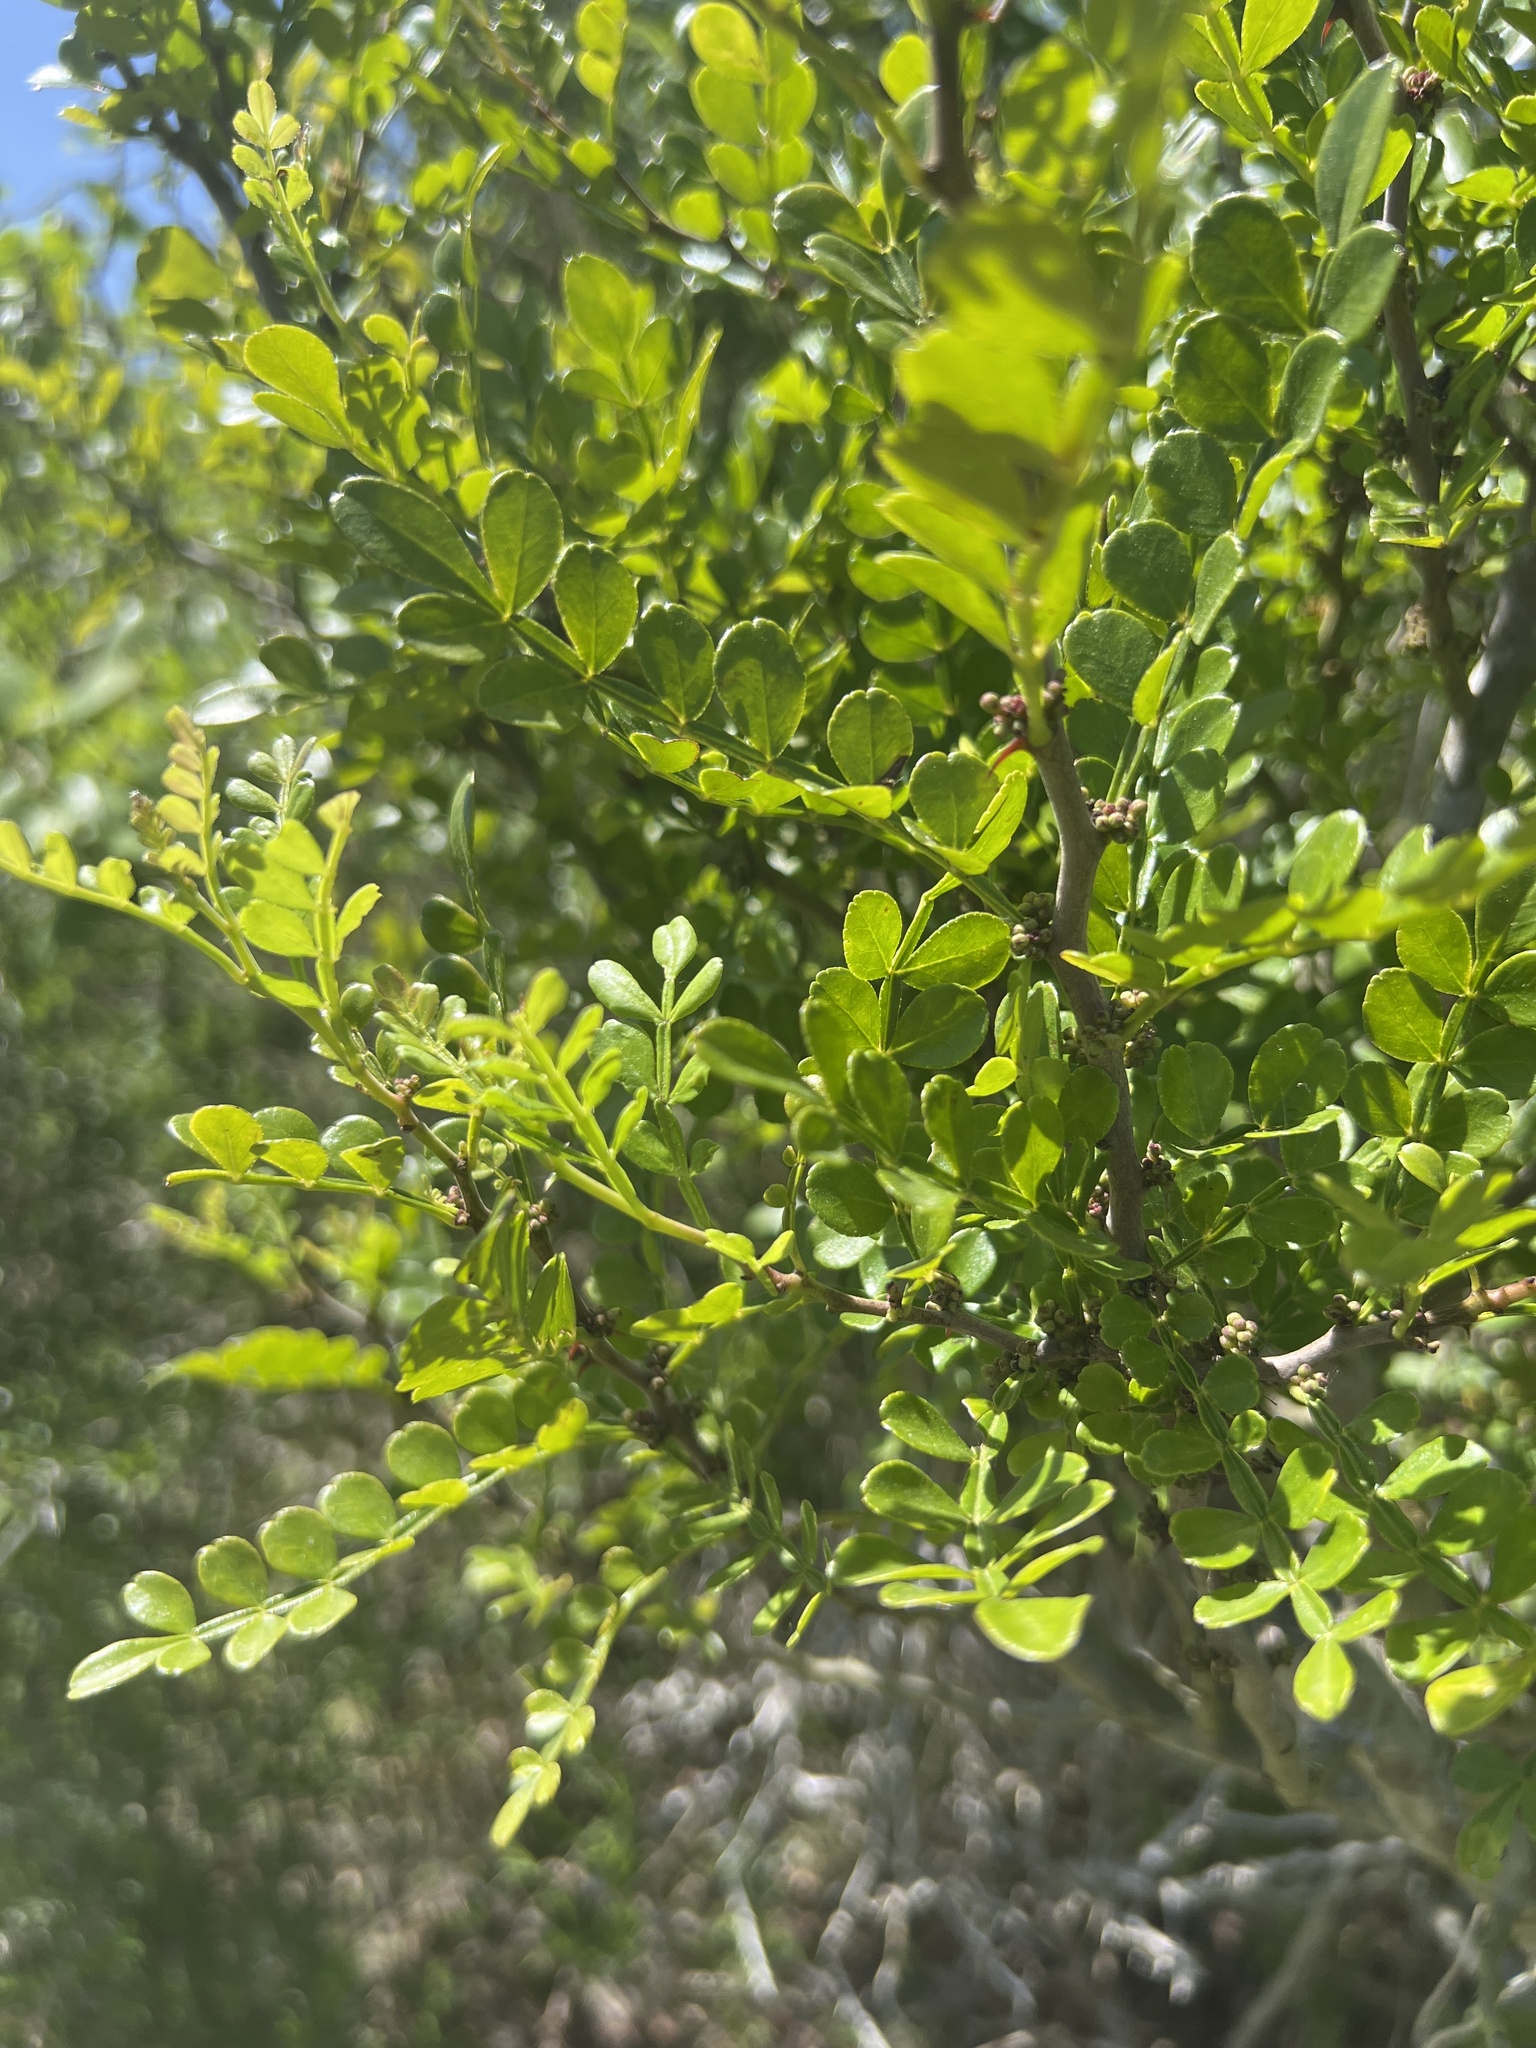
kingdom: Plantae
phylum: Tracheophyta
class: Magnoliopsida
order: Sapindales
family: Rutaceae
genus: Zanthoxylum
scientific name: Zanthoxylum fagara
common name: Lime prickly-ash
